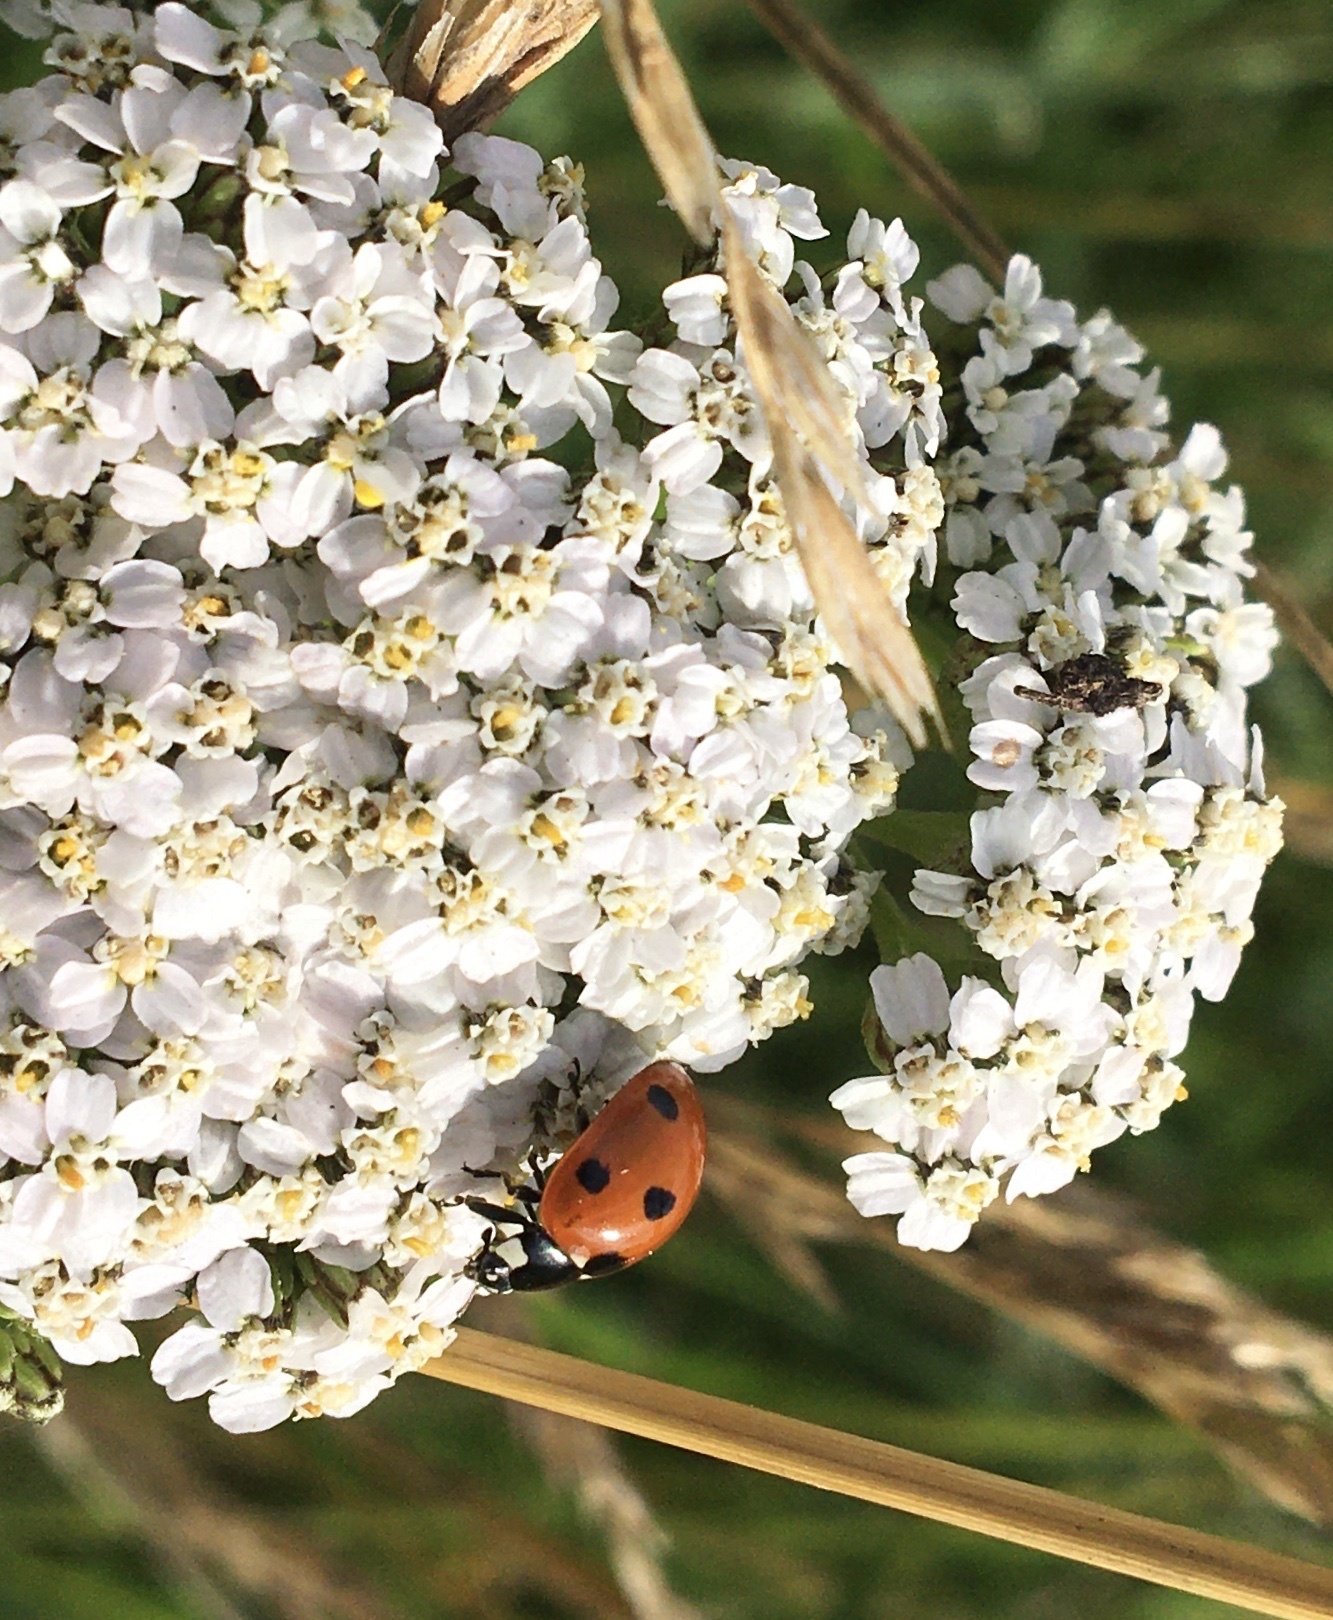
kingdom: Animalia
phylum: Arthropoda
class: Insecta
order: Coleoptera
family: Coccinellidae
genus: Coccinella
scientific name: Coccinella septempunctata
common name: Sevenspotted lady beetle
